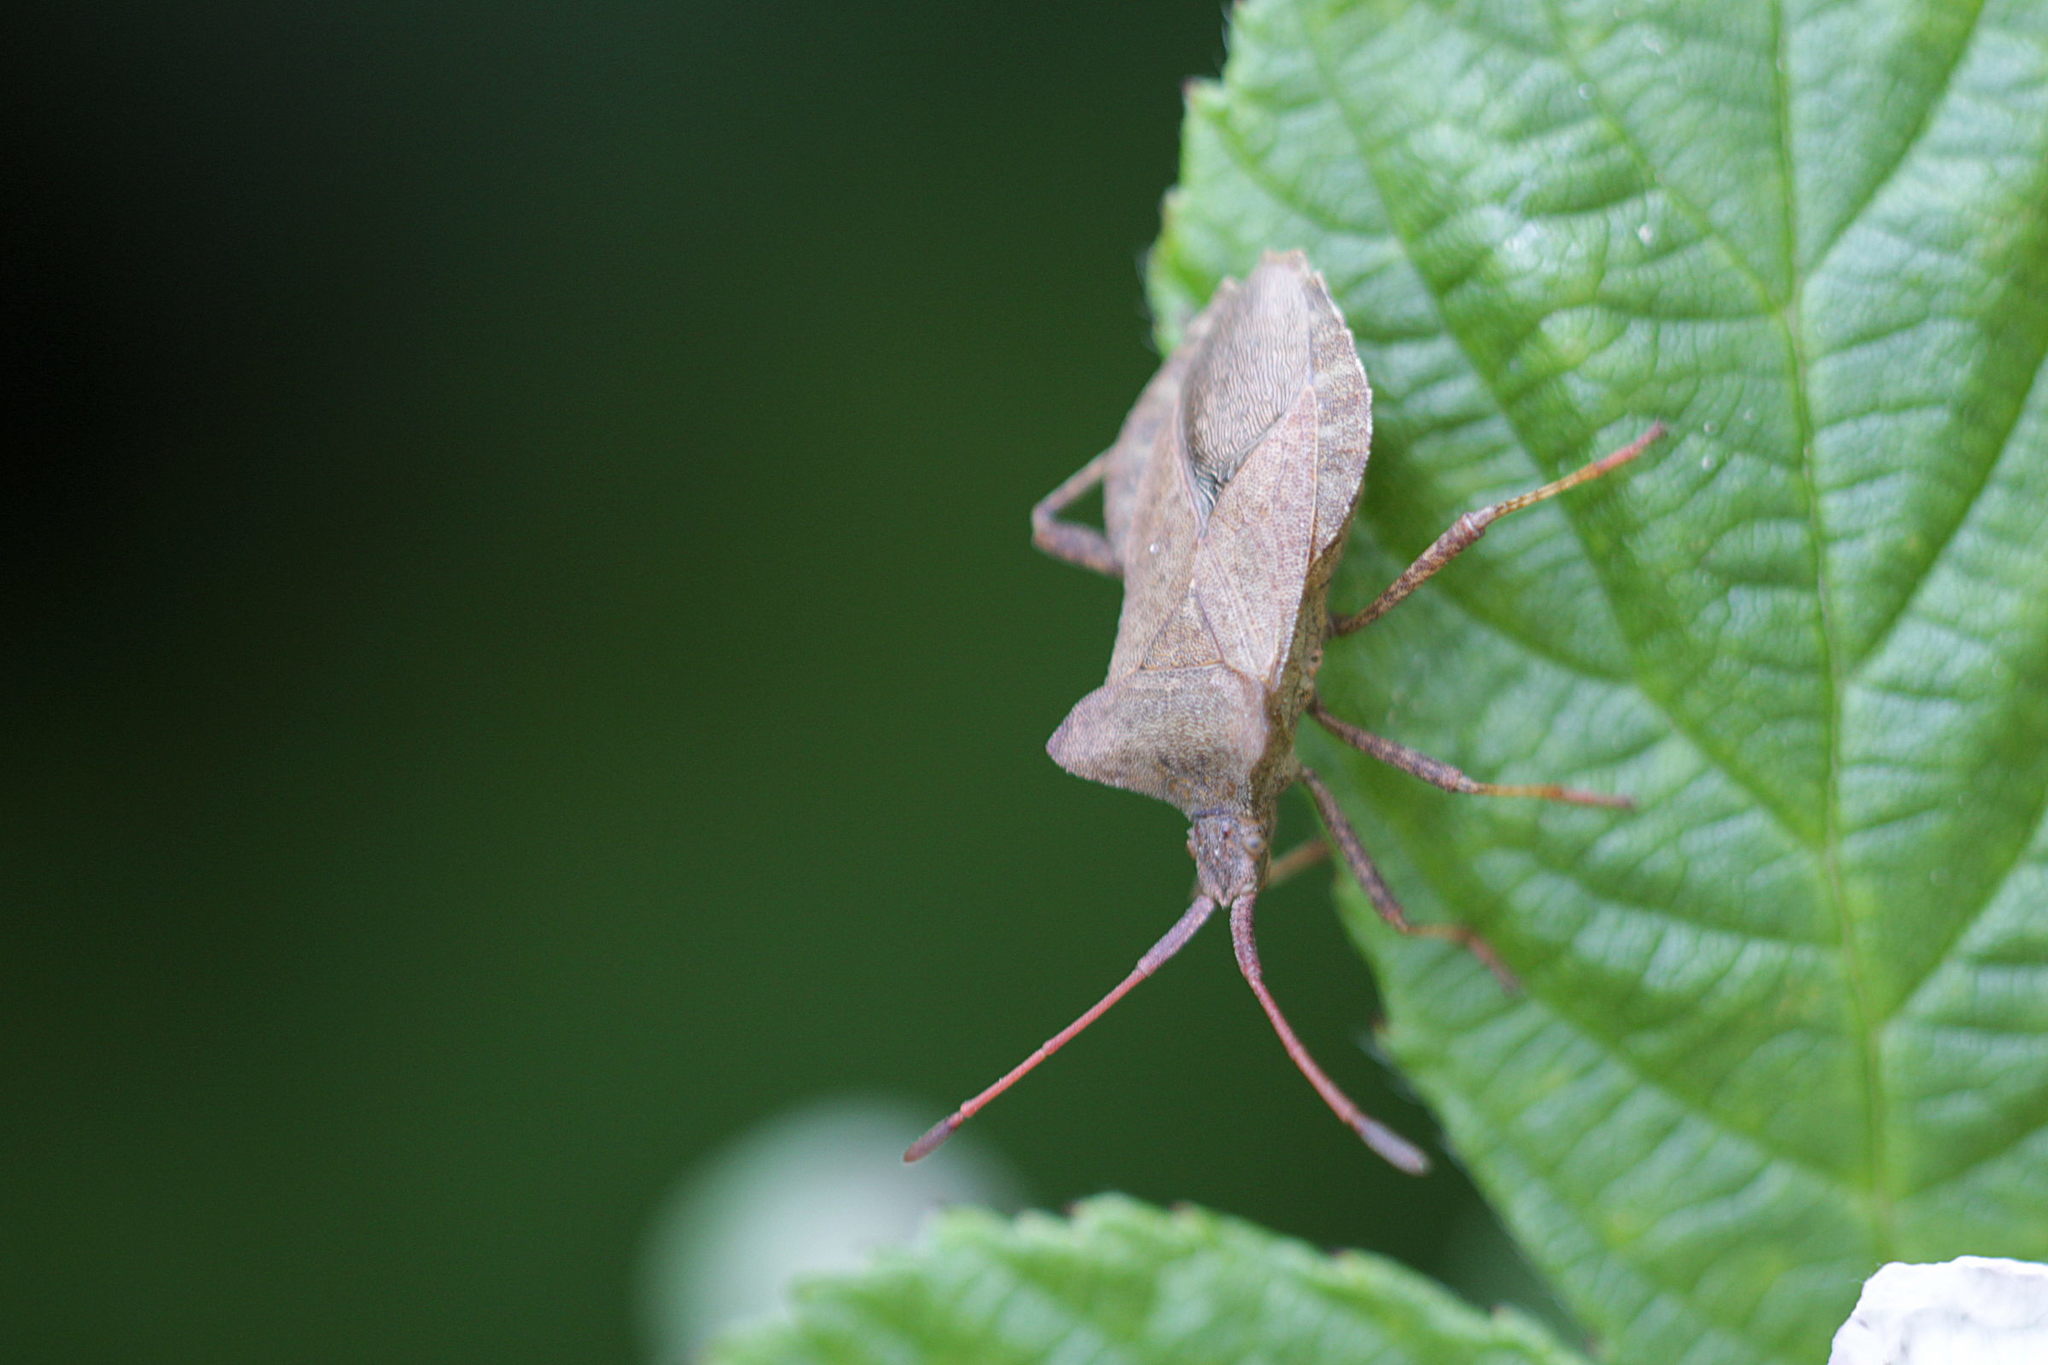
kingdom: Animalia
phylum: Arthropoda
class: Insecta
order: Hemiptera
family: Coreidae
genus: Coreus
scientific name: Coreus marginatus
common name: Dock bug
